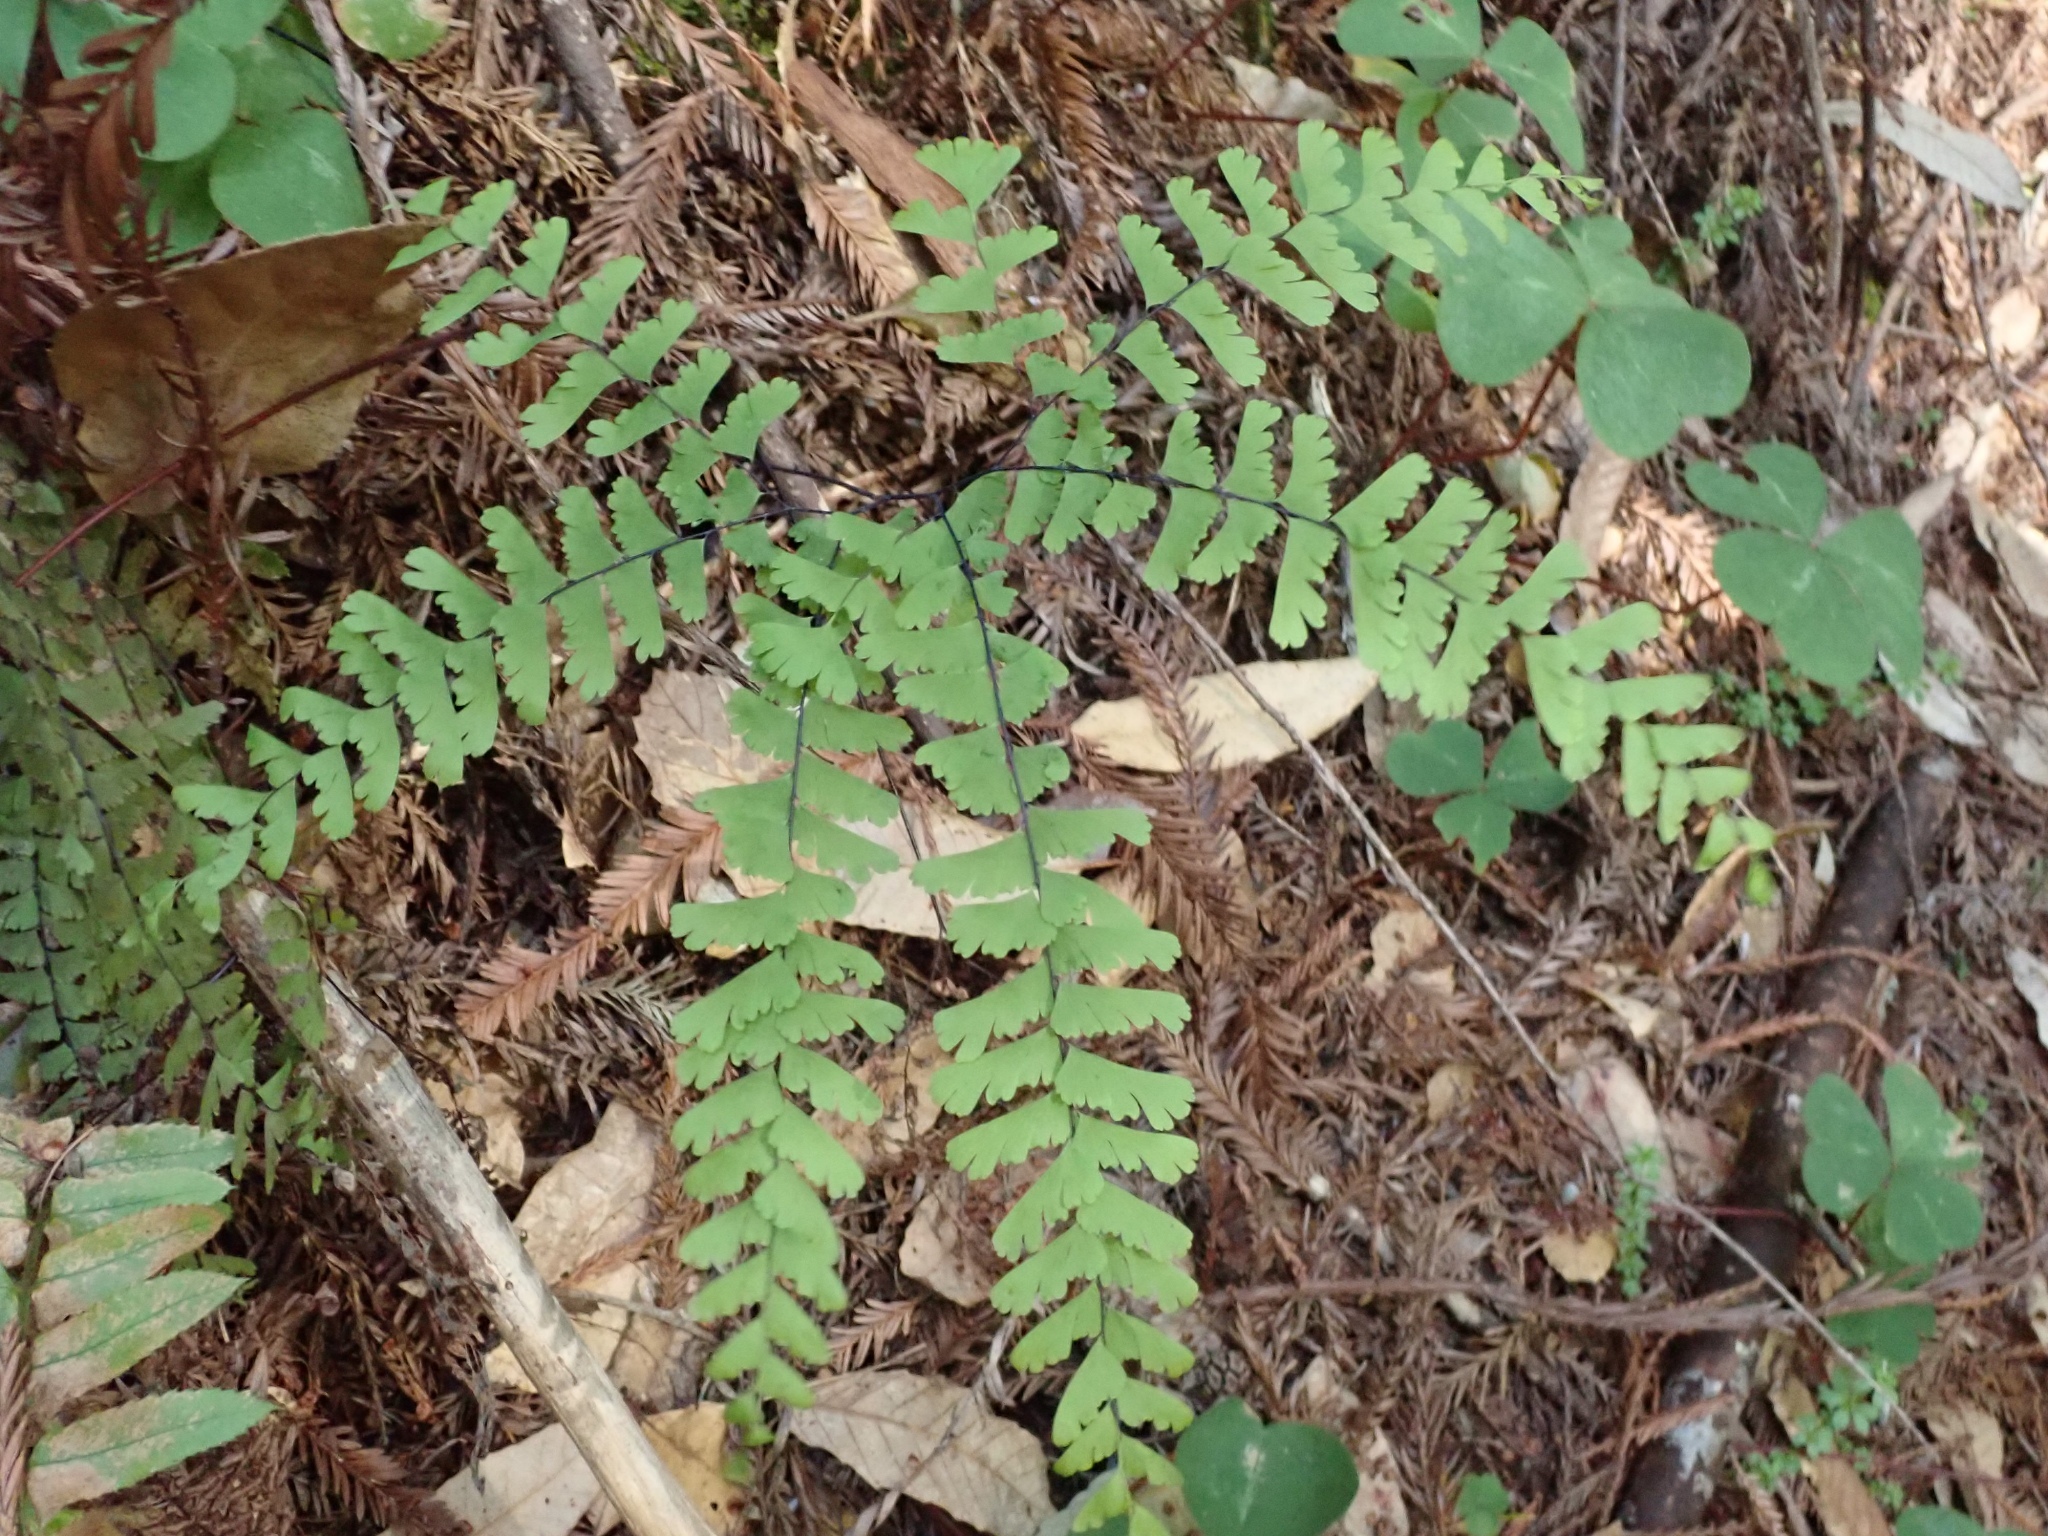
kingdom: Plantae
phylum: Tracheophyta
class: Polypodiopsida
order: Polypodiales
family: Pteridaceae
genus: Adiantum
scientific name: Adiantum aleuticum
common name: Aleutian maidenhair fern
